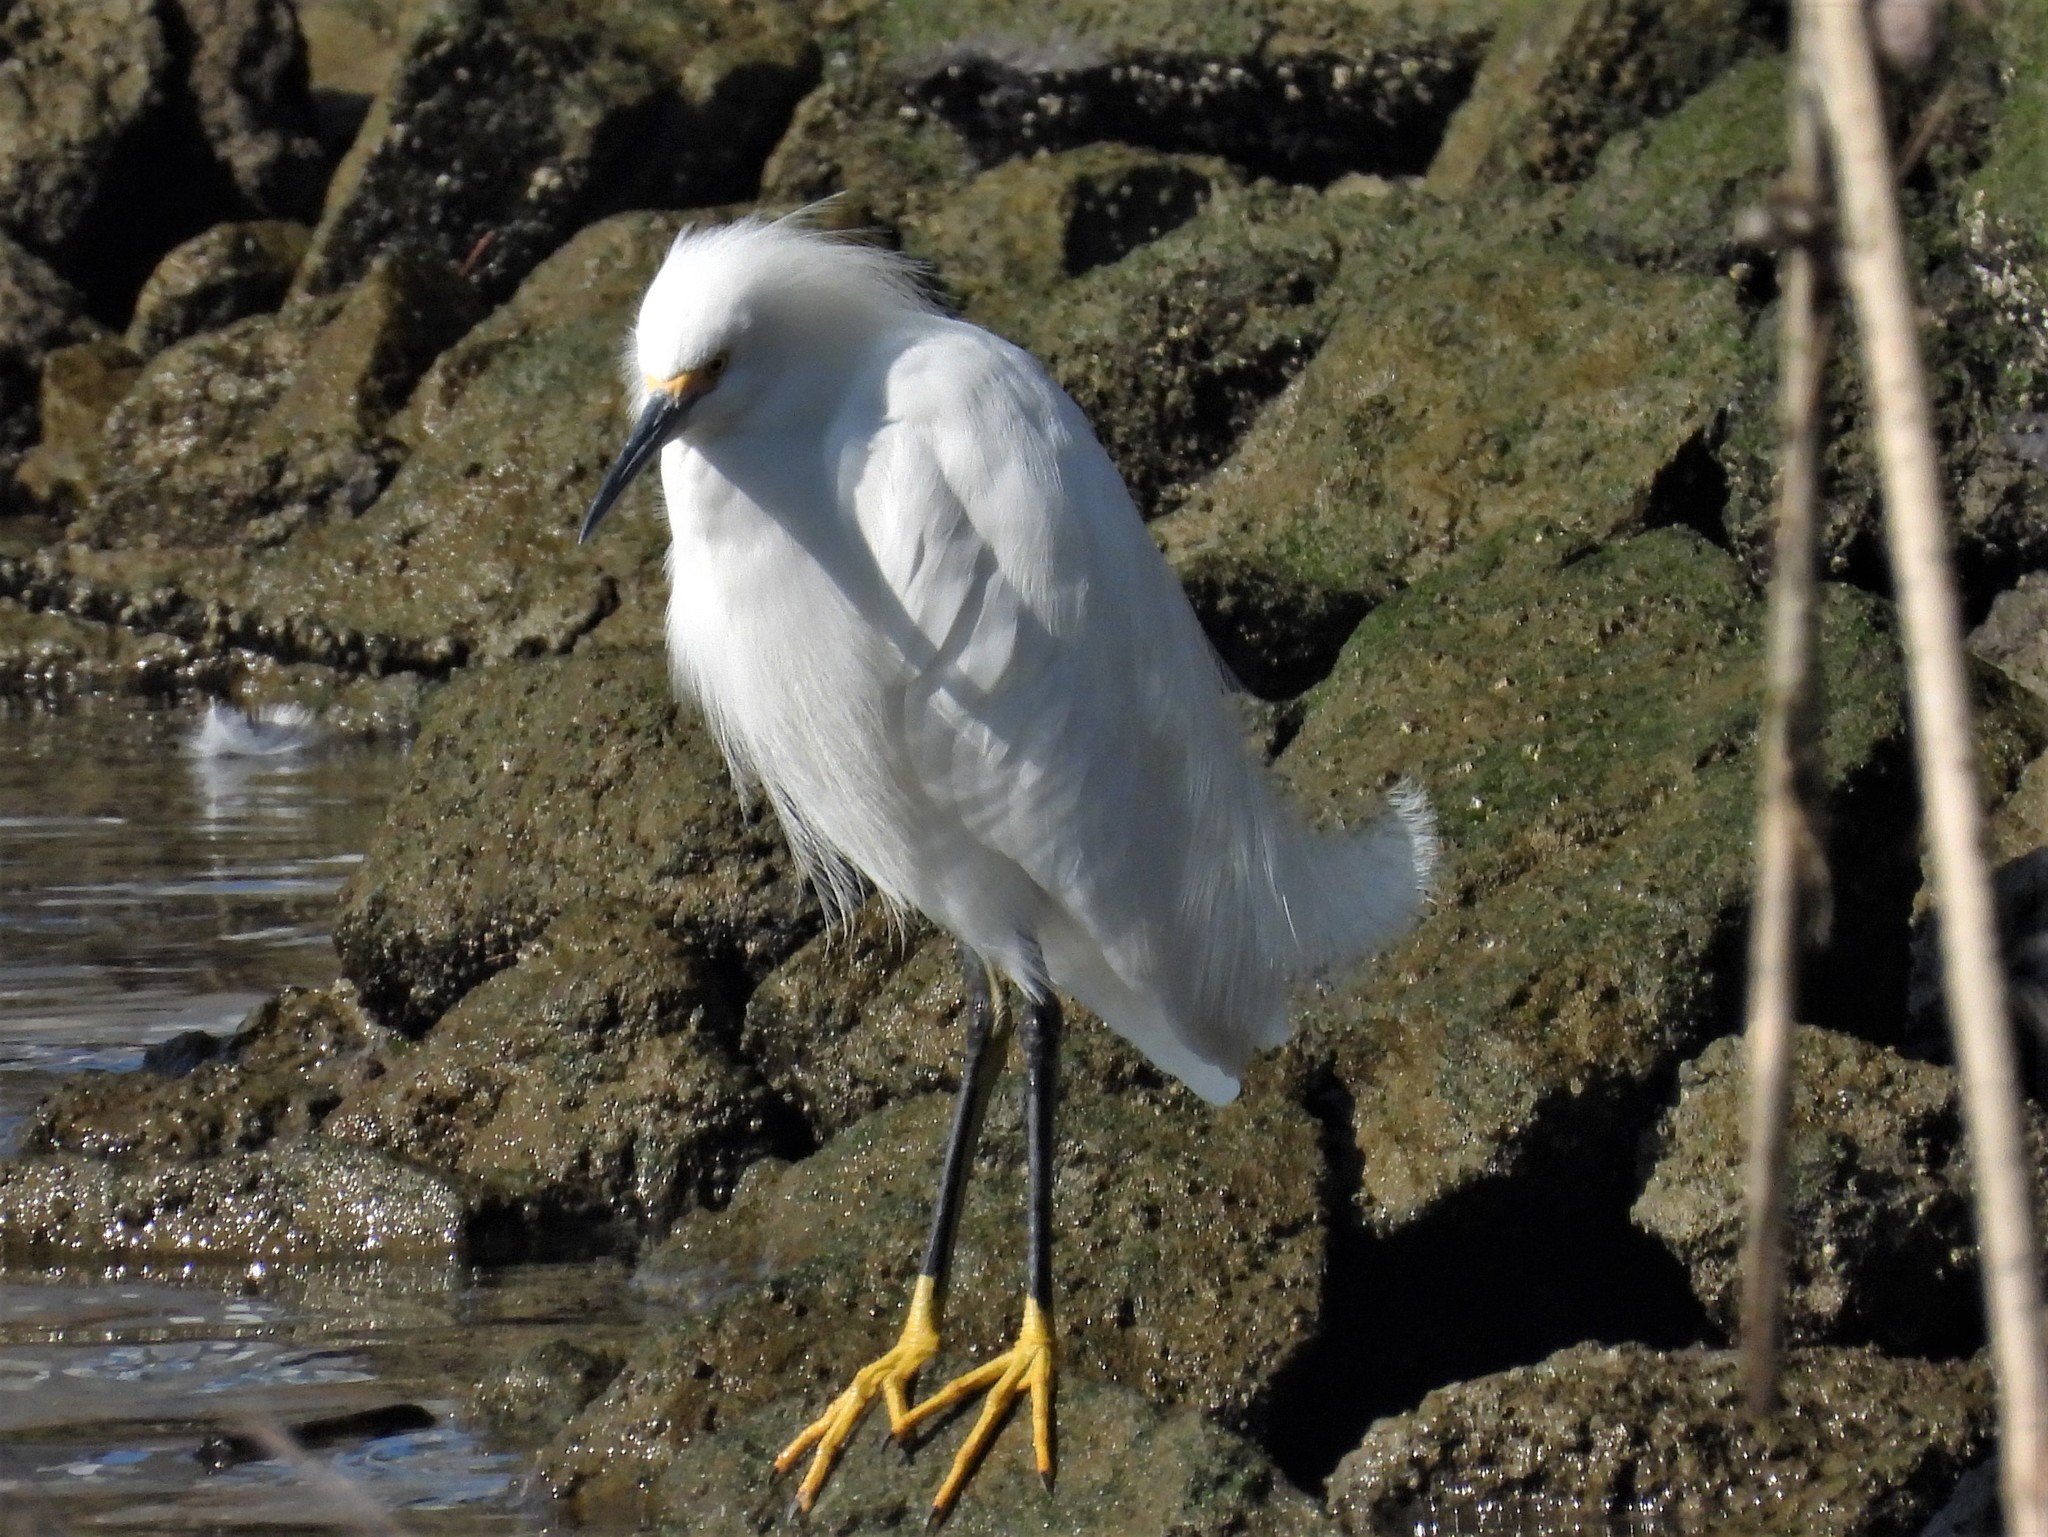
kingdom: Animalia
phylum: Chordata
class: Aves
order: Pelecaniformes
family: Ardeidae
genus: Egretta
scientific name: Egretta thula
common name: Snowy egret
